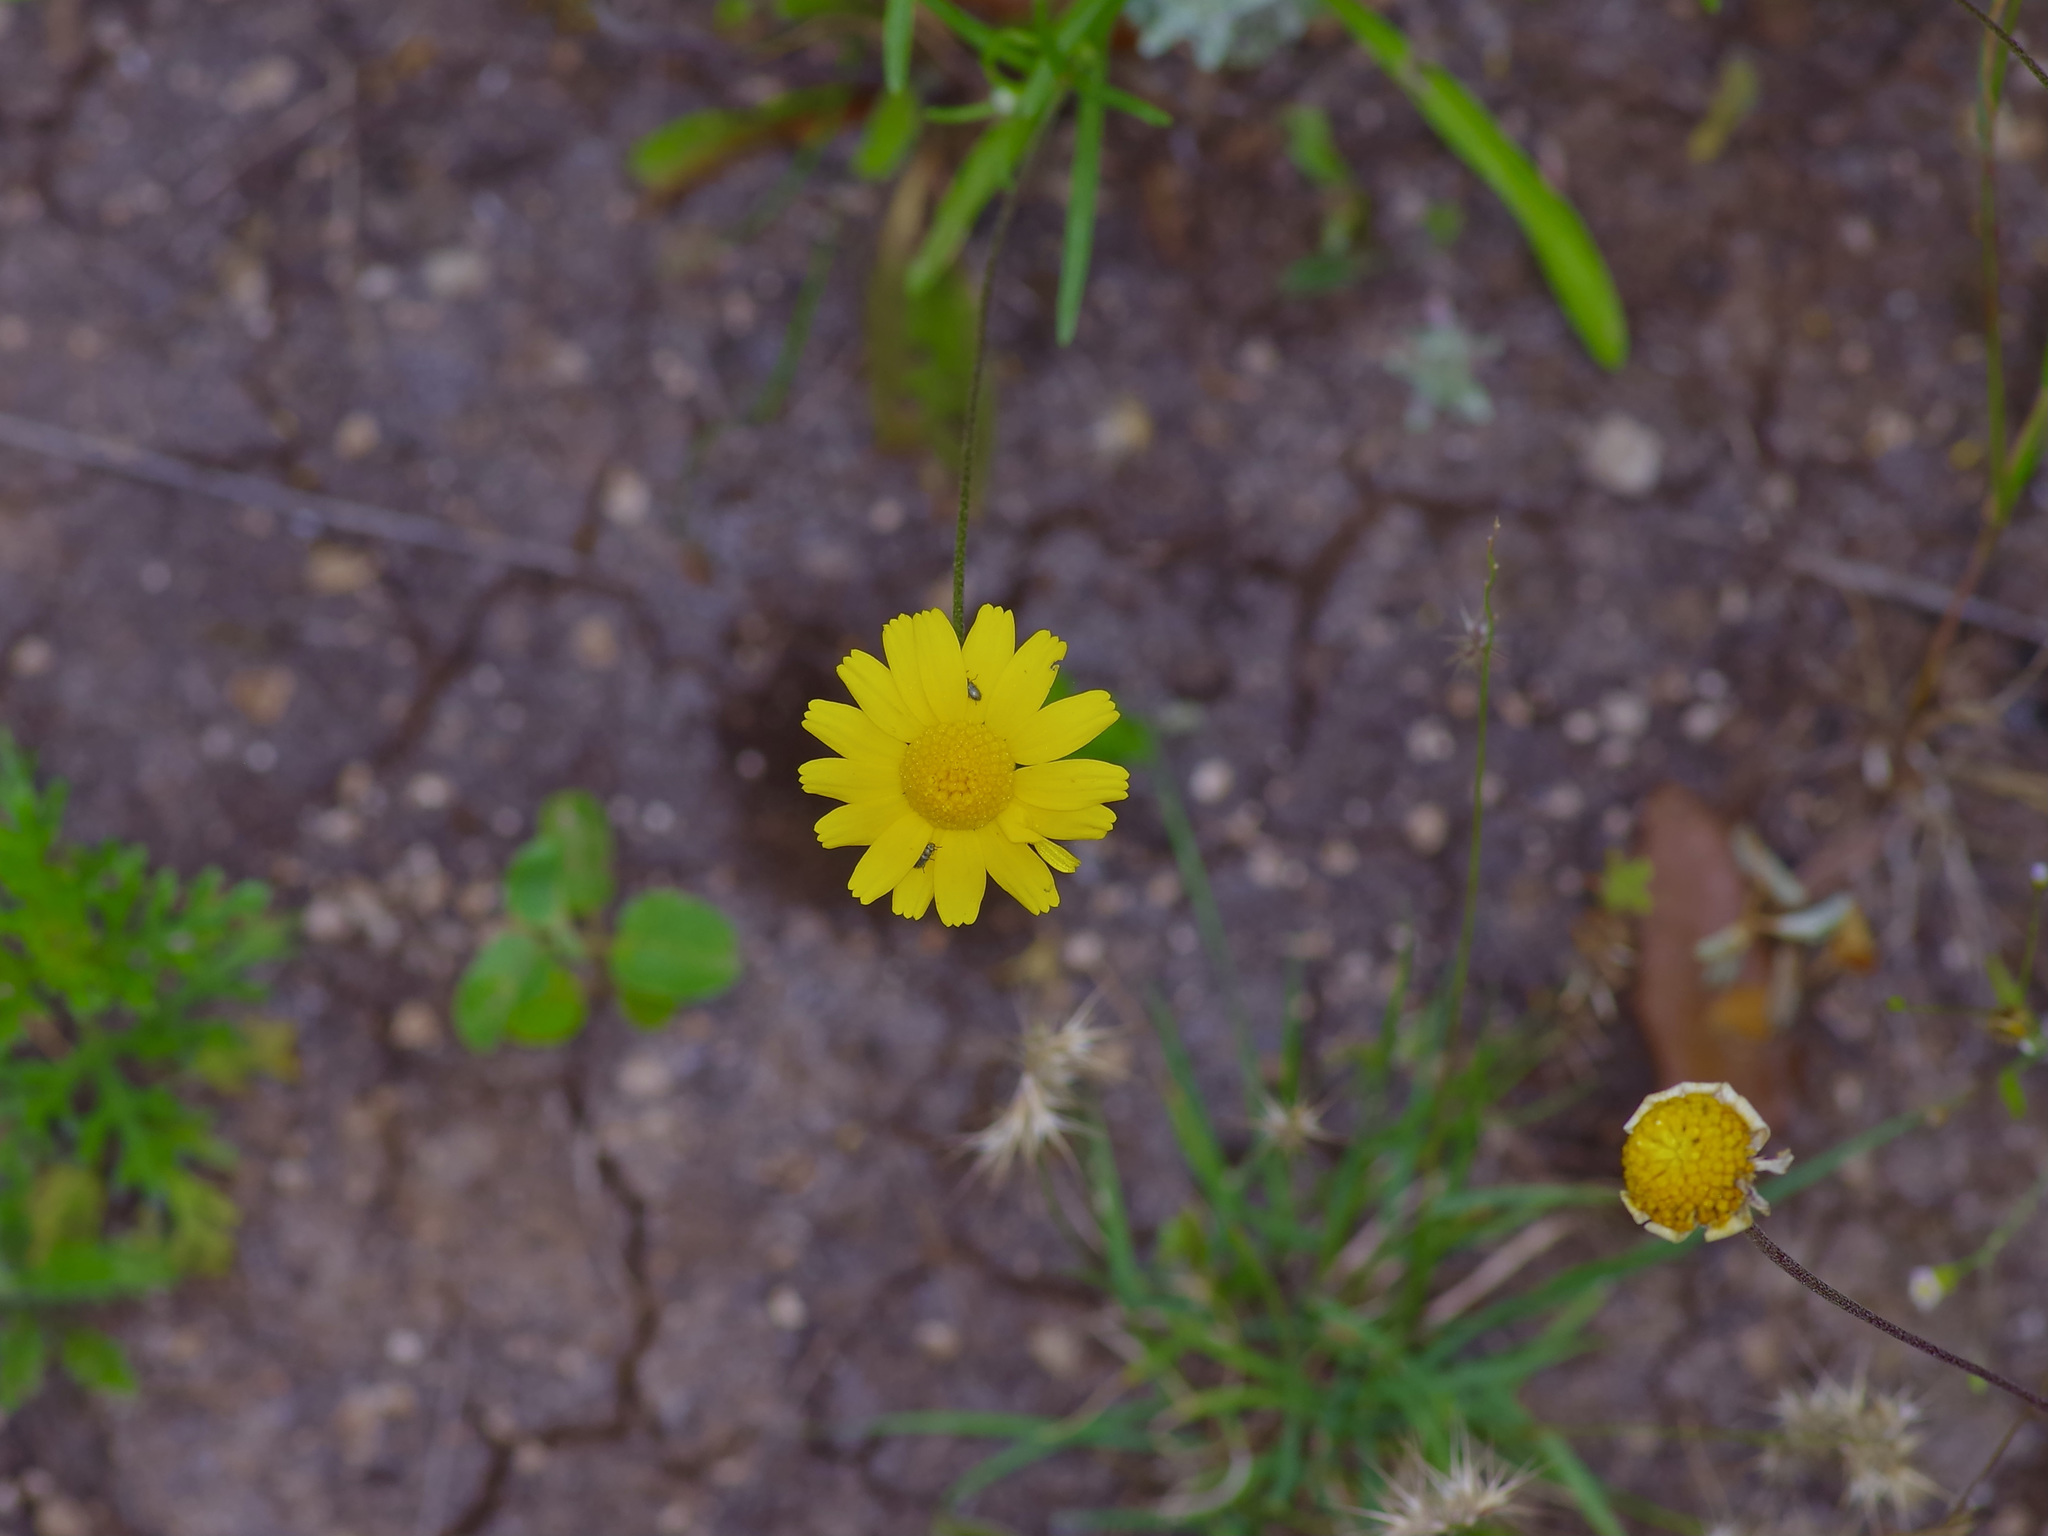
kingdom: Plantae
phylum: Tracheophyta
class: Magnoliopsida
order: Asterales
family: Asteraceae
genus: Tetraneuris
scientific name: Tetraneuris linearifolia
